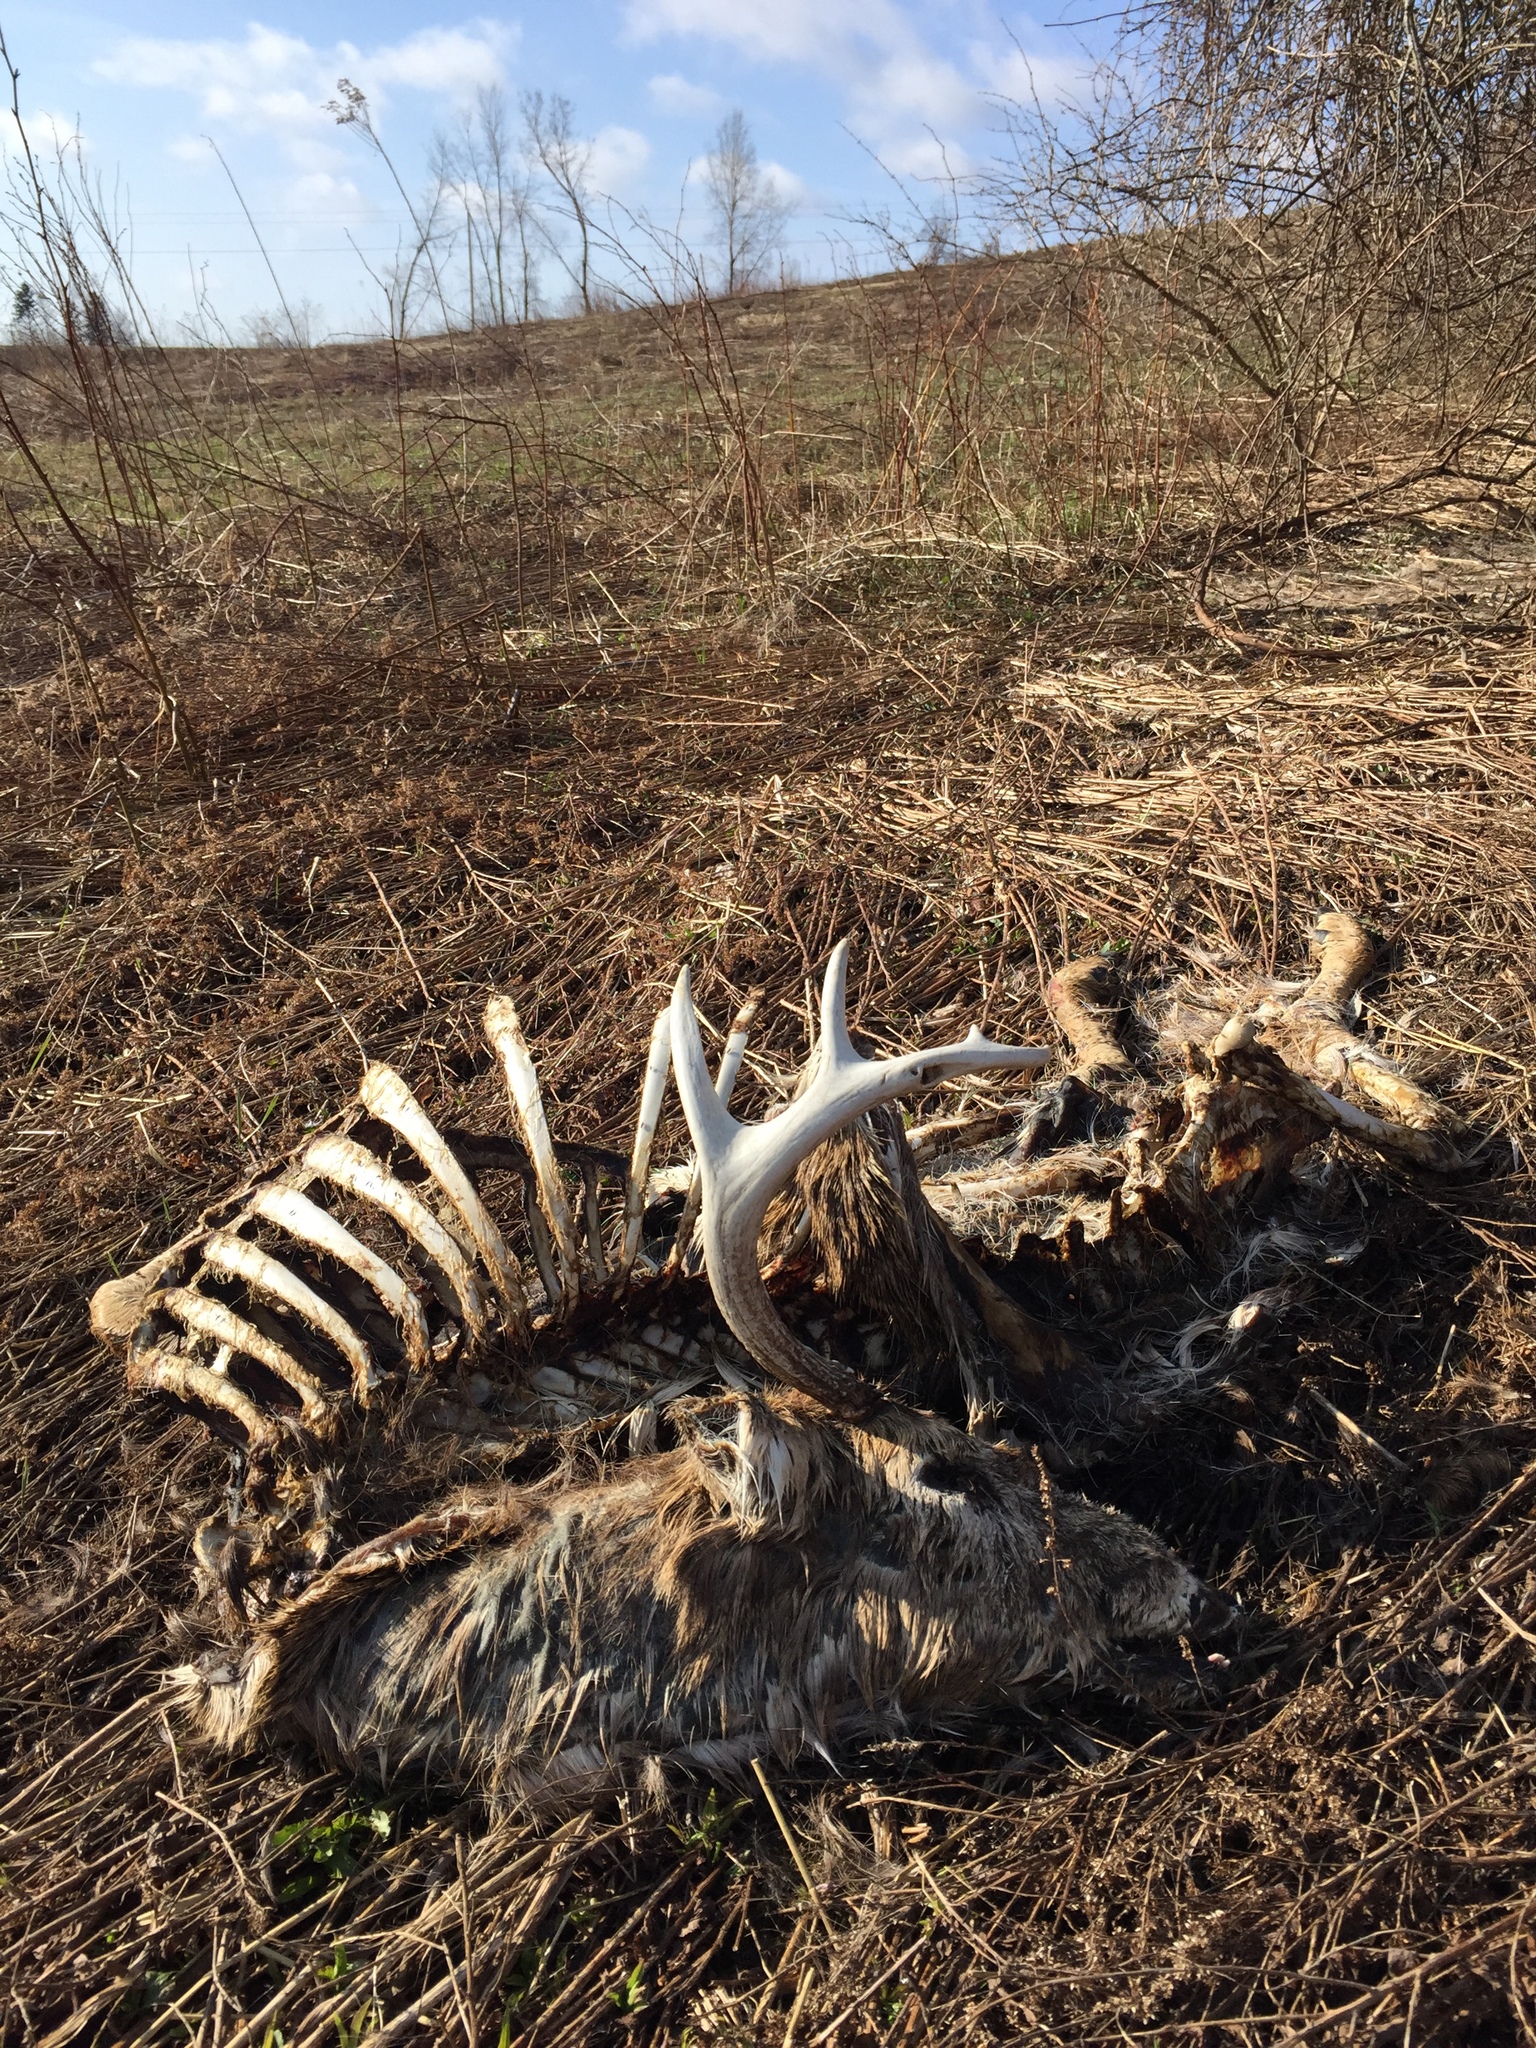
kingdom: Animalia
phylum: Chordata
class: Mammalia
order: Artiodactyla
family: Cervidae
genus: Odocoileus
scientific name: Odocoileus virginianus
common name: White-tailed deer
